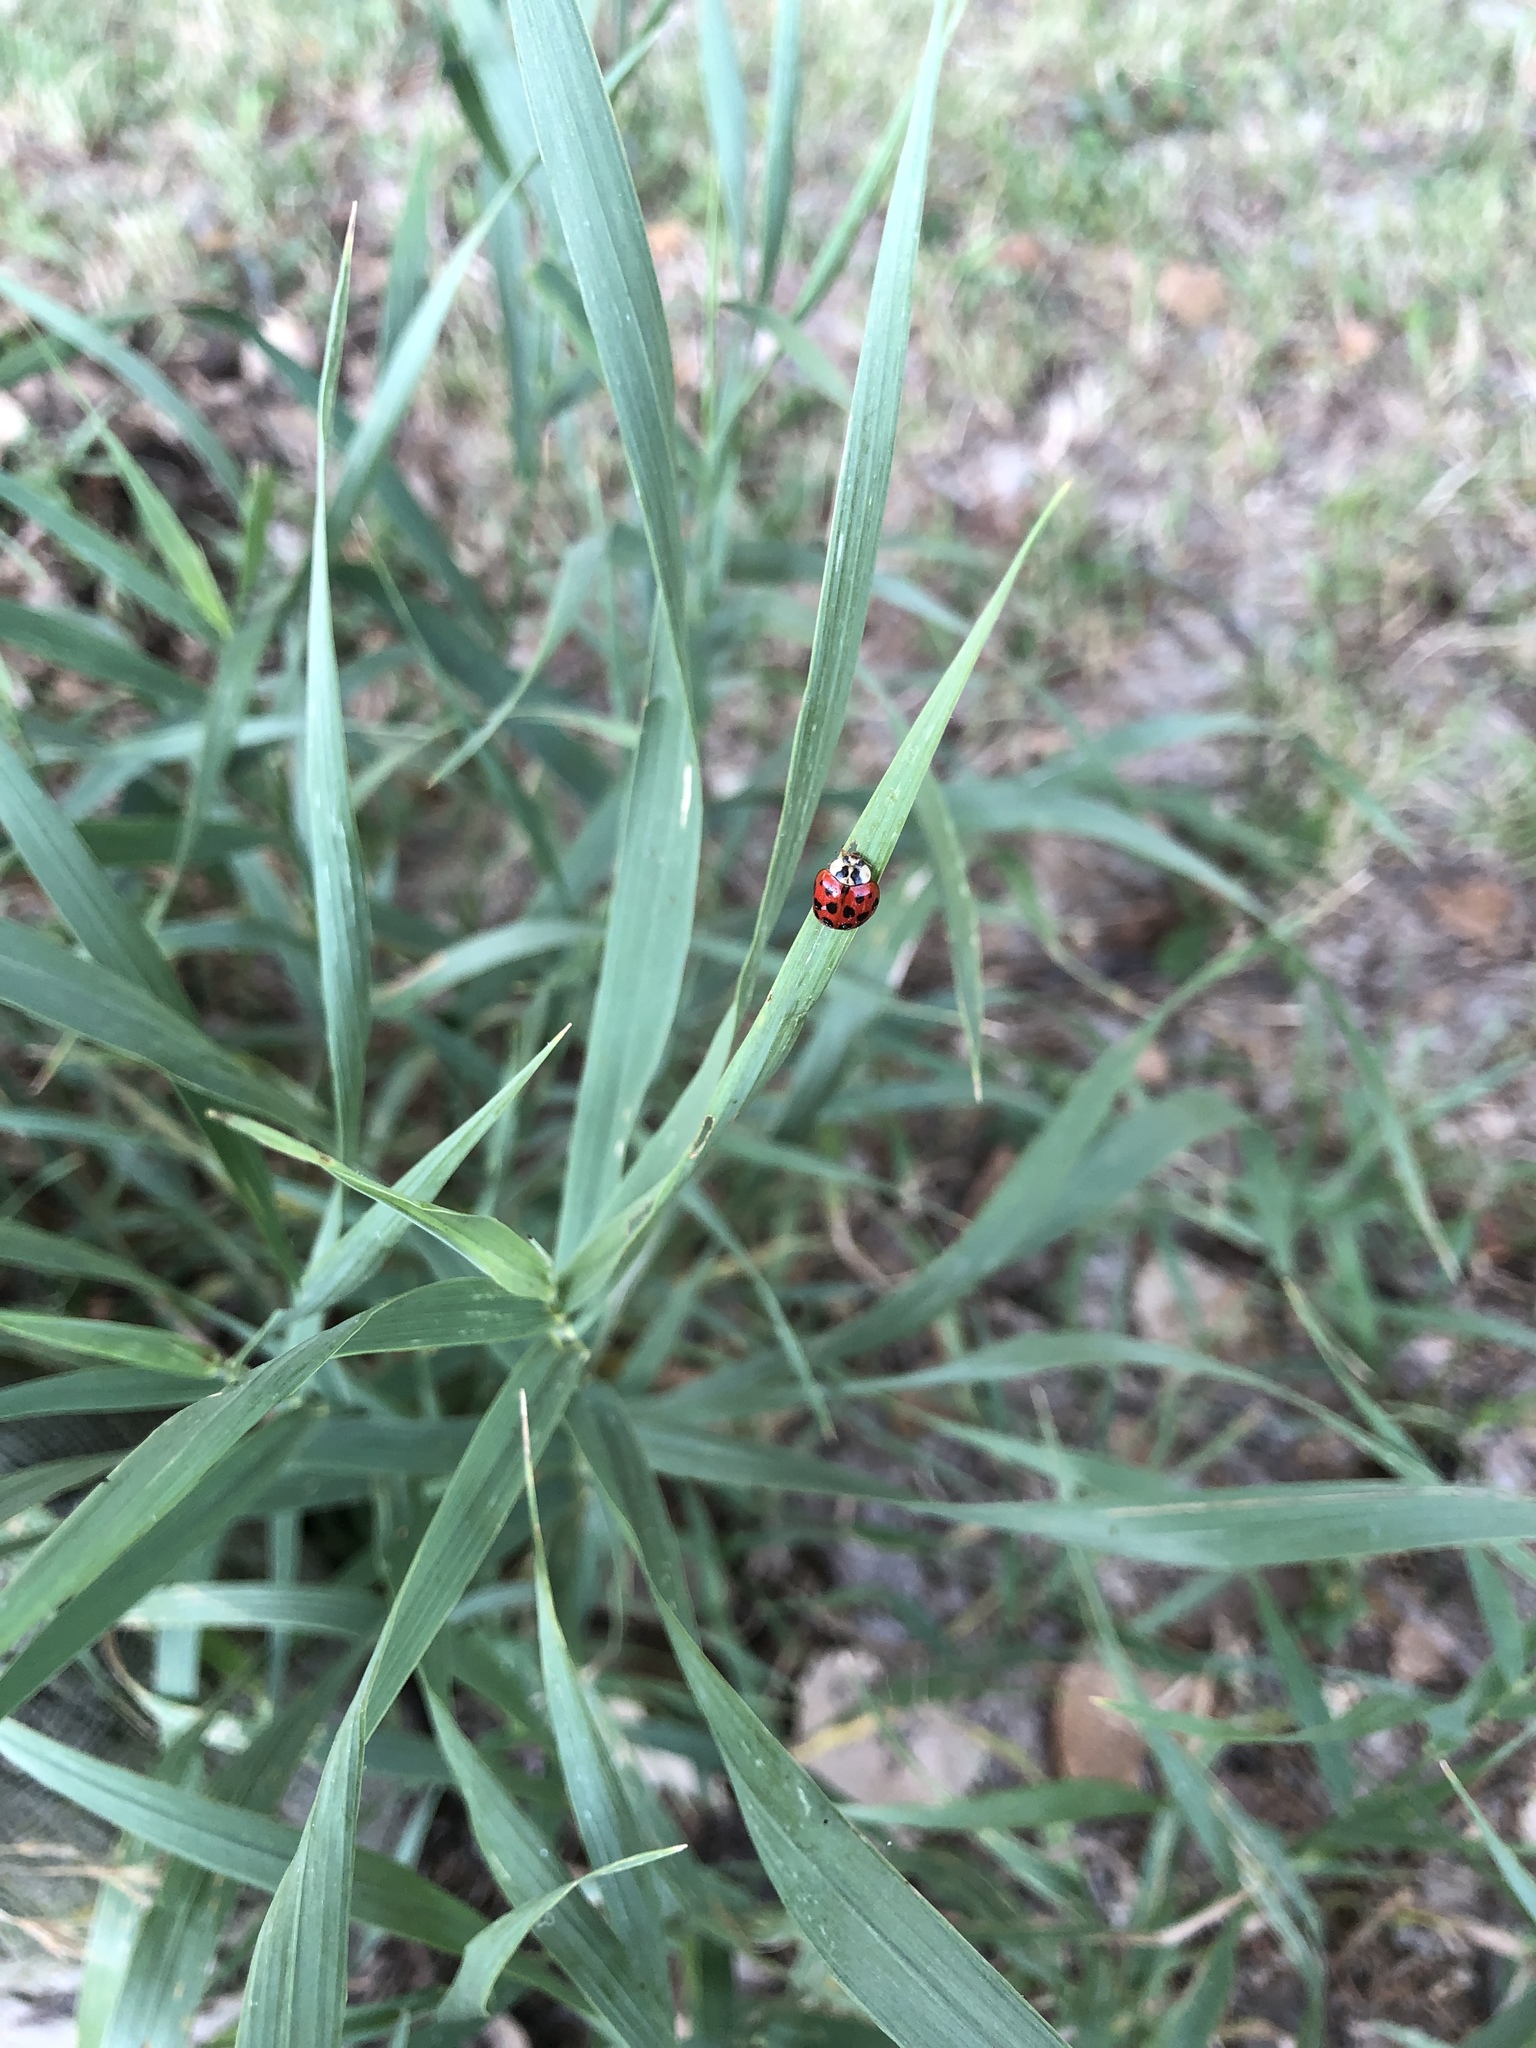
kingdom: Animalia
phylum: Arthropoda
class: Insecta
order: Coleoptera
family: Coccinellidae
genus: Harmonia
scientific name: Harmonia axyridis
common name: Harlequin ladybird
